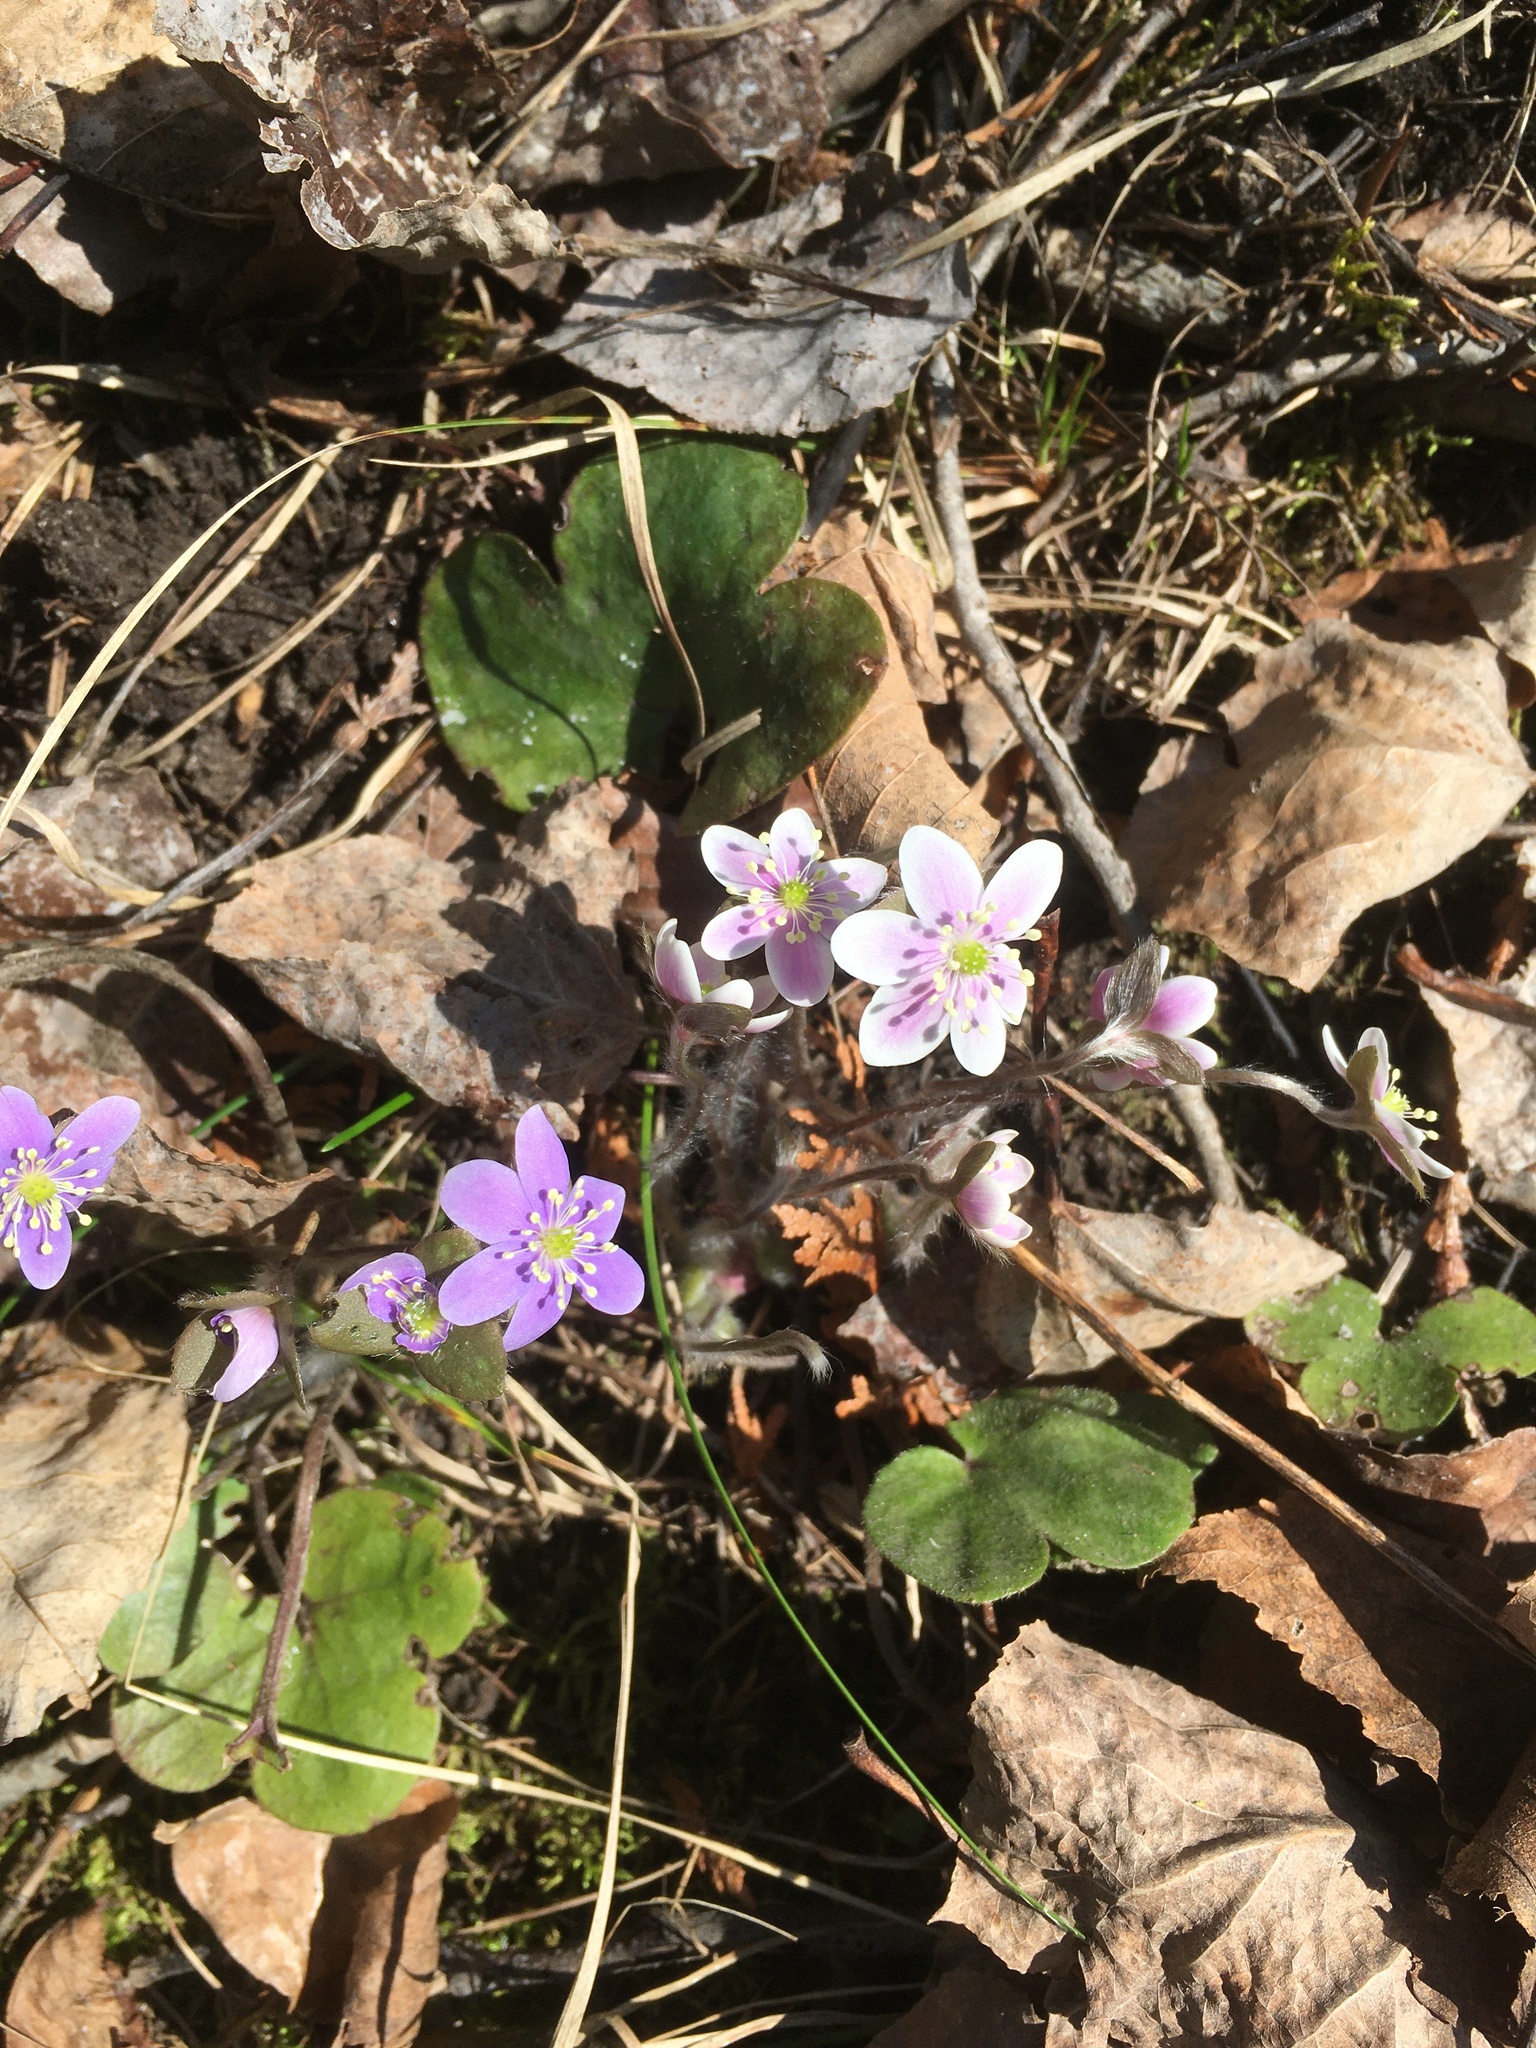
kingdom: Plantae
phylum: Tracheophyta
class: Magnoliopsida
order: Ranunculales
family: Ranunculaceae
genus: Hepatica
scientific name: Hepatica americana
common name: American hepatica
